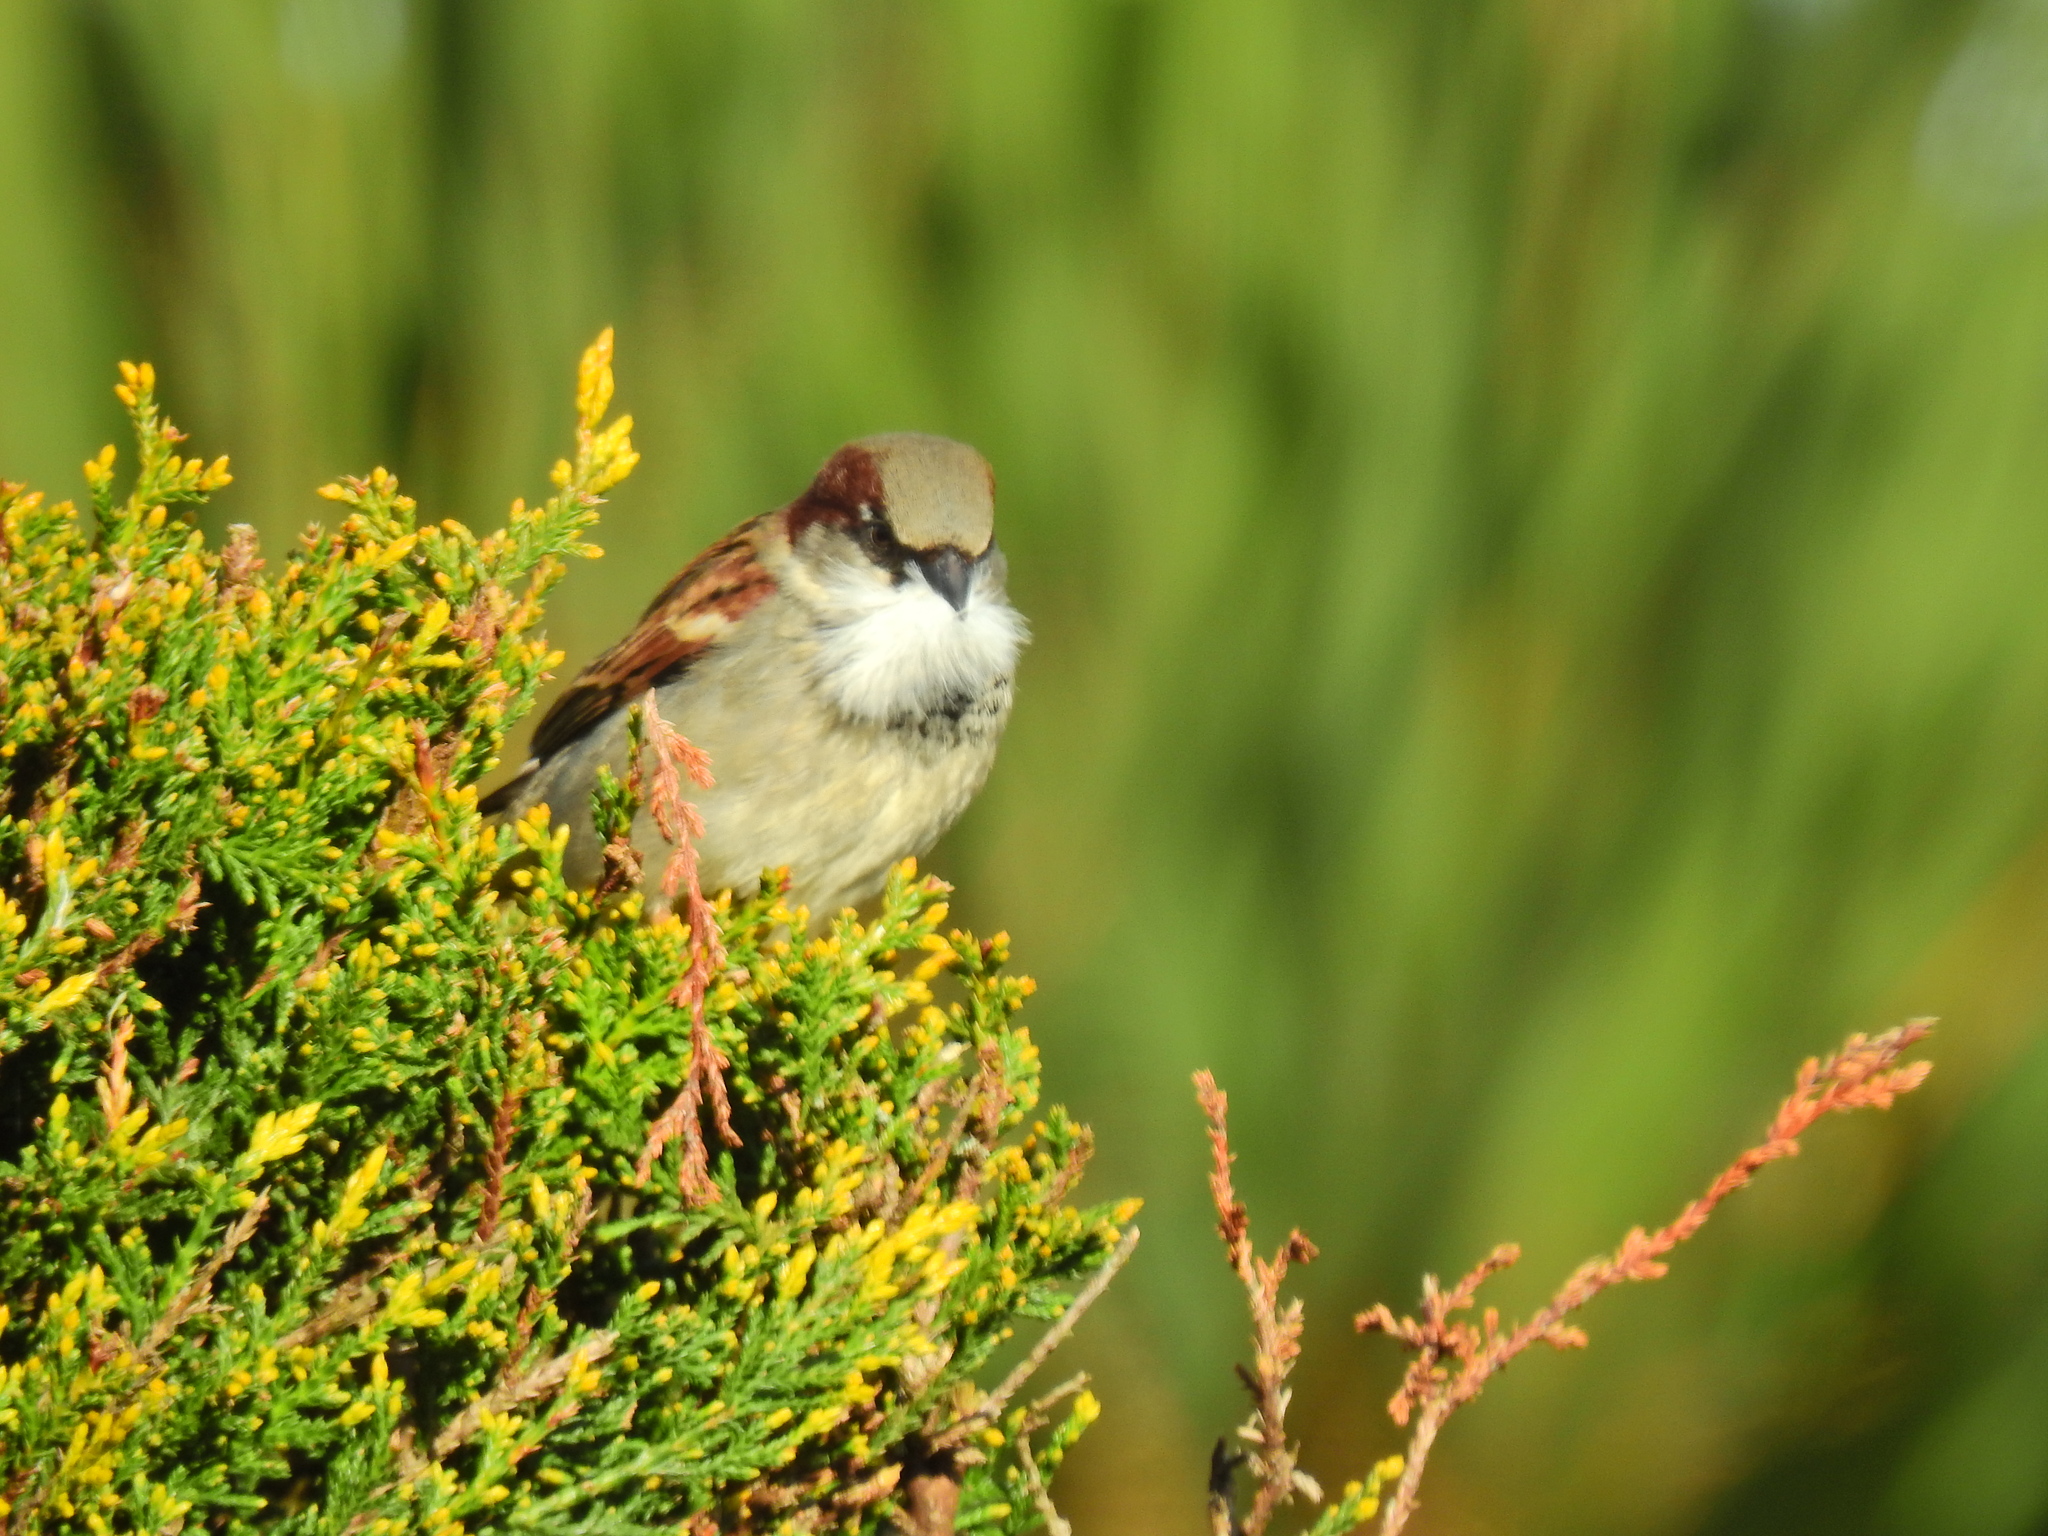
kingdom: Animalia
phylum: Chordata
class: Aves
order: Passeriformes
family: Passeridae
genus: Passer
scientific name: Passer domesticus
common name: House sparrow
